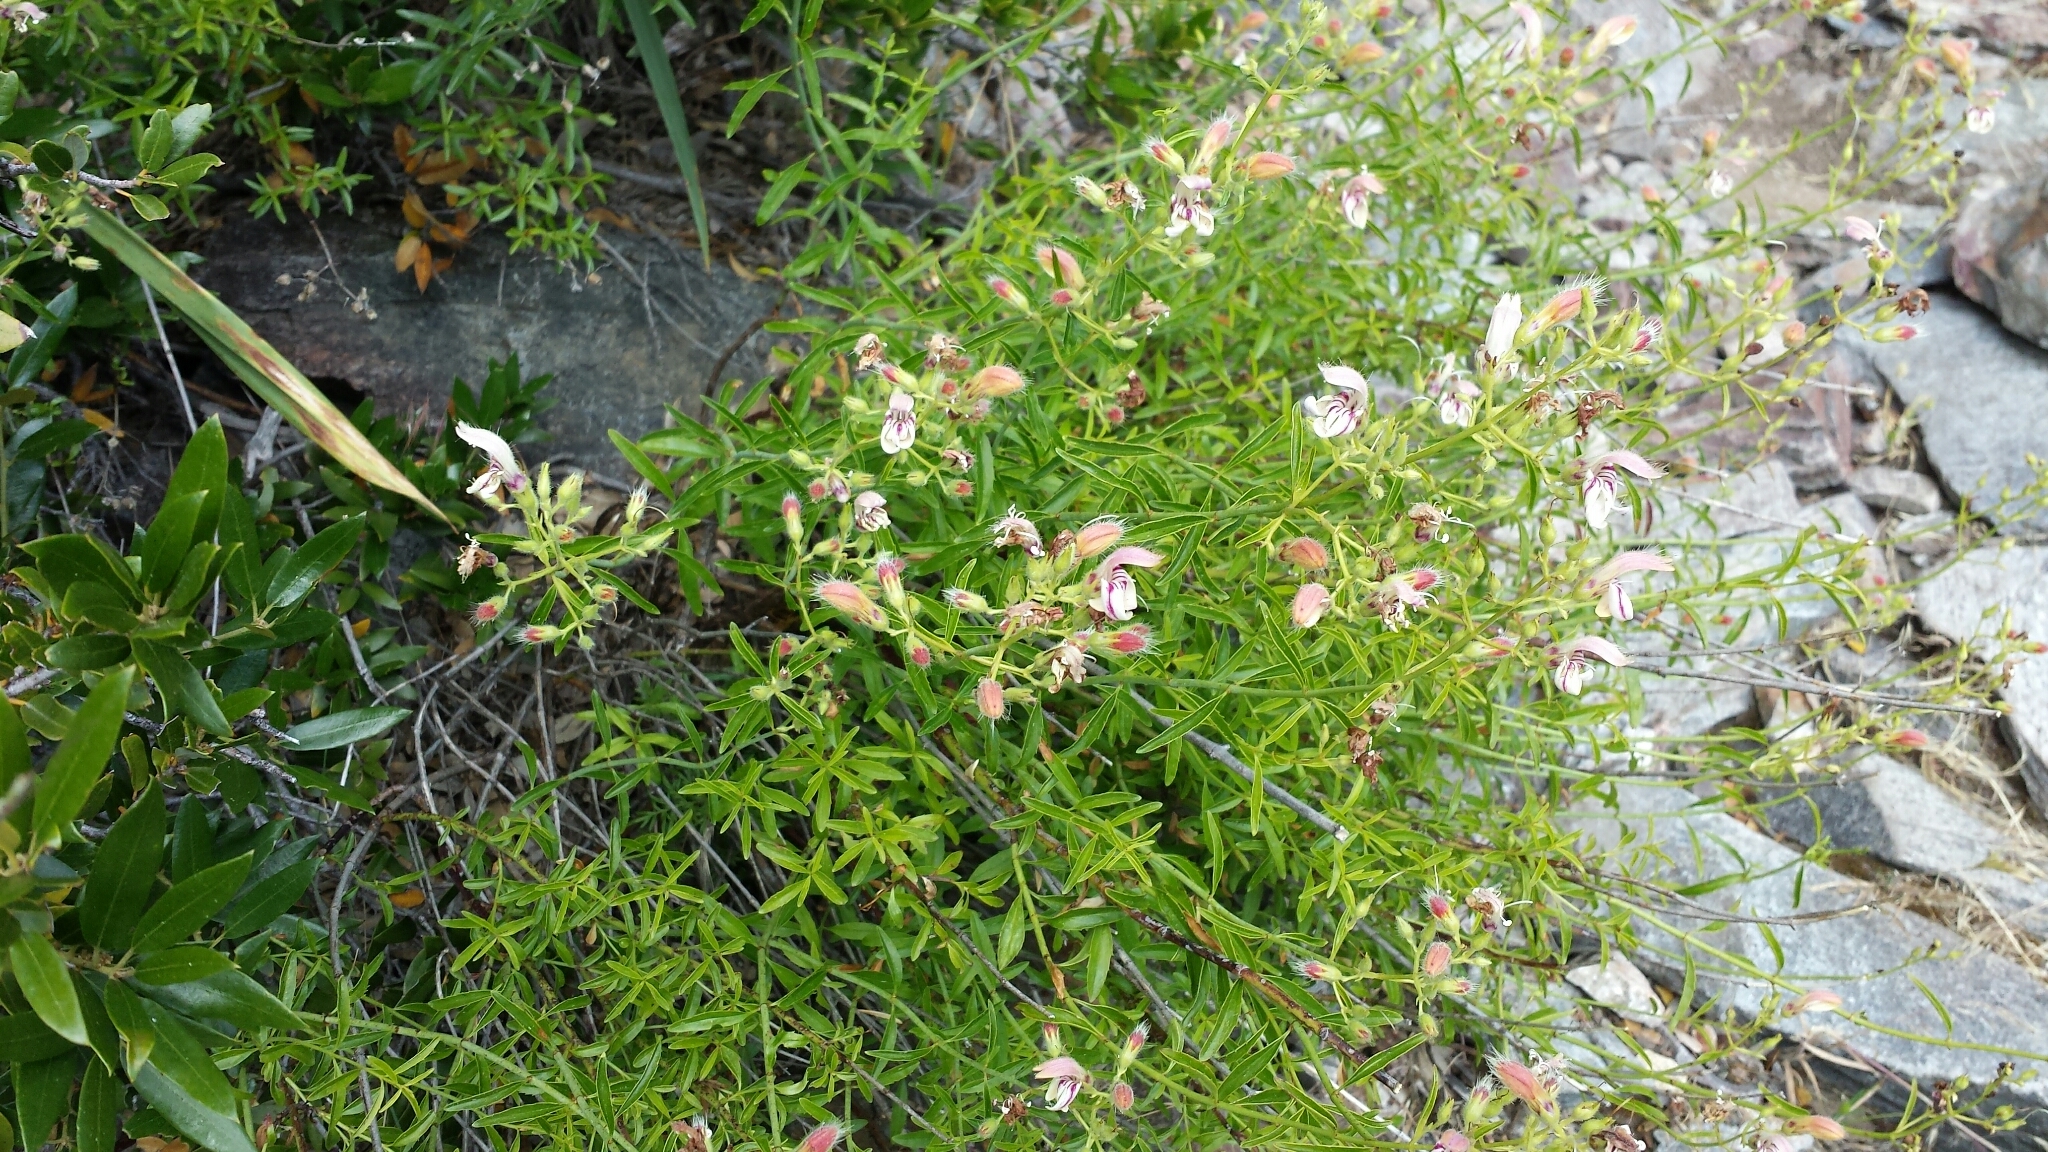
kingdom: Plantae
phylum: Tracheophyta
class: Magnoliopsida
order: Lamiales
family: Plantaginaceae
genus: Keckiella
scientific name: Keckiella breviflora
